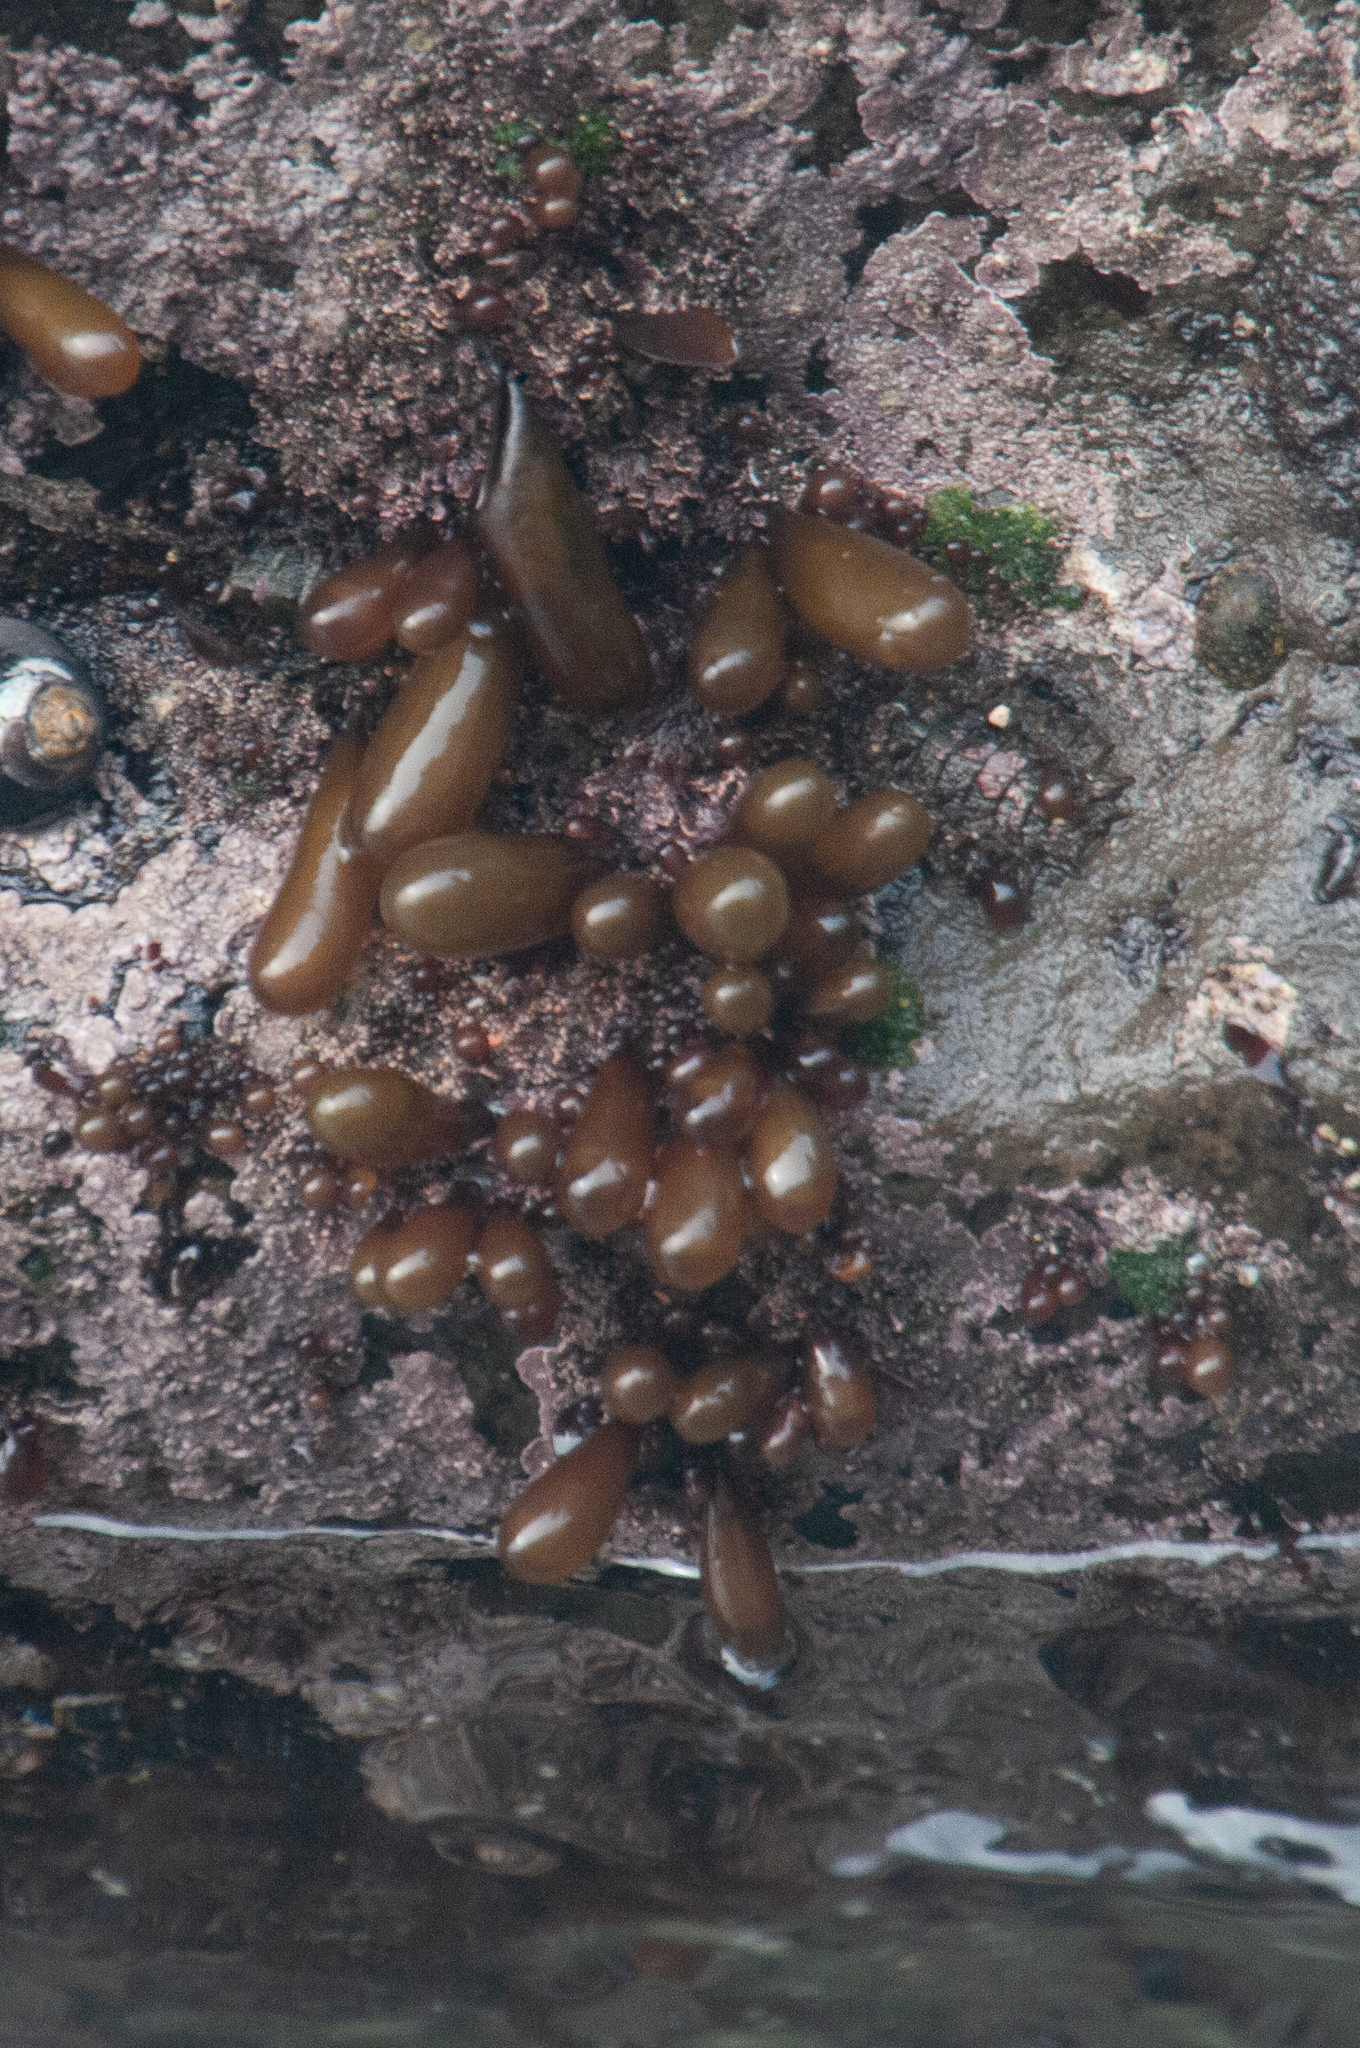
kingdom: Plantae
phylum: Rhodophyta
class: Florideophyceae
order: Palmariales
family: Palmariaceae
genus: Halosaccion
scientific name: Halosaccion glandiforme
